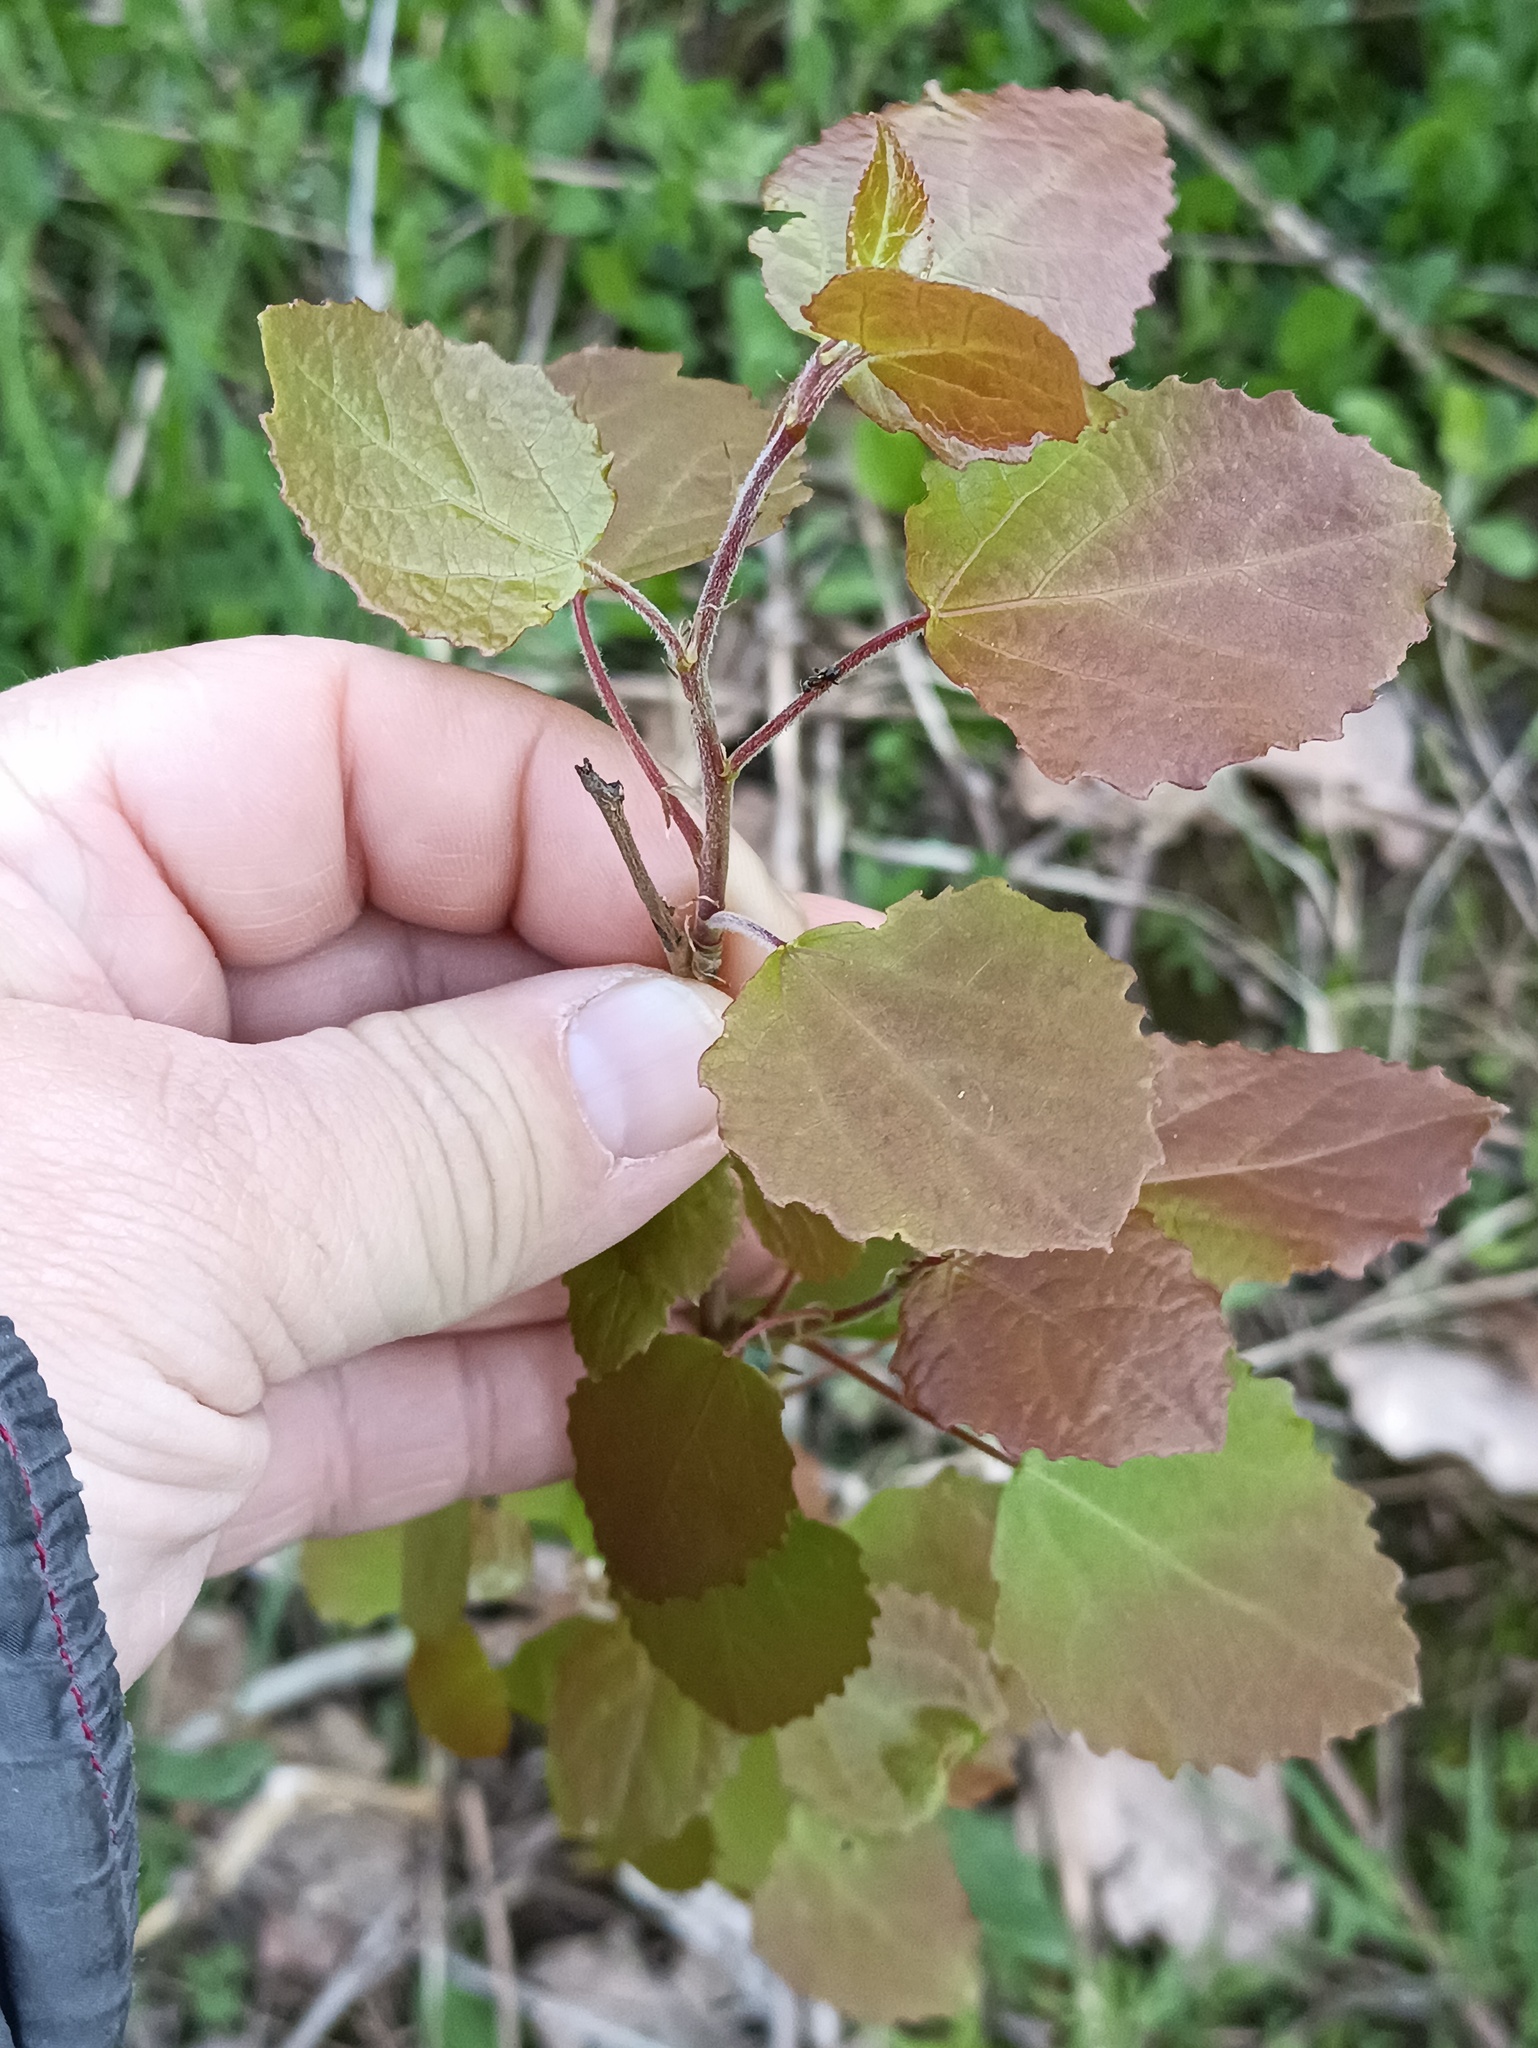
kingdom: Plantae
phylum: Tracheophyta
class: Magnoliopsida
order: Malpighiales
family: Salicaceae
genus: Populus
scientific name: Populus tremula
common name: European aspen
